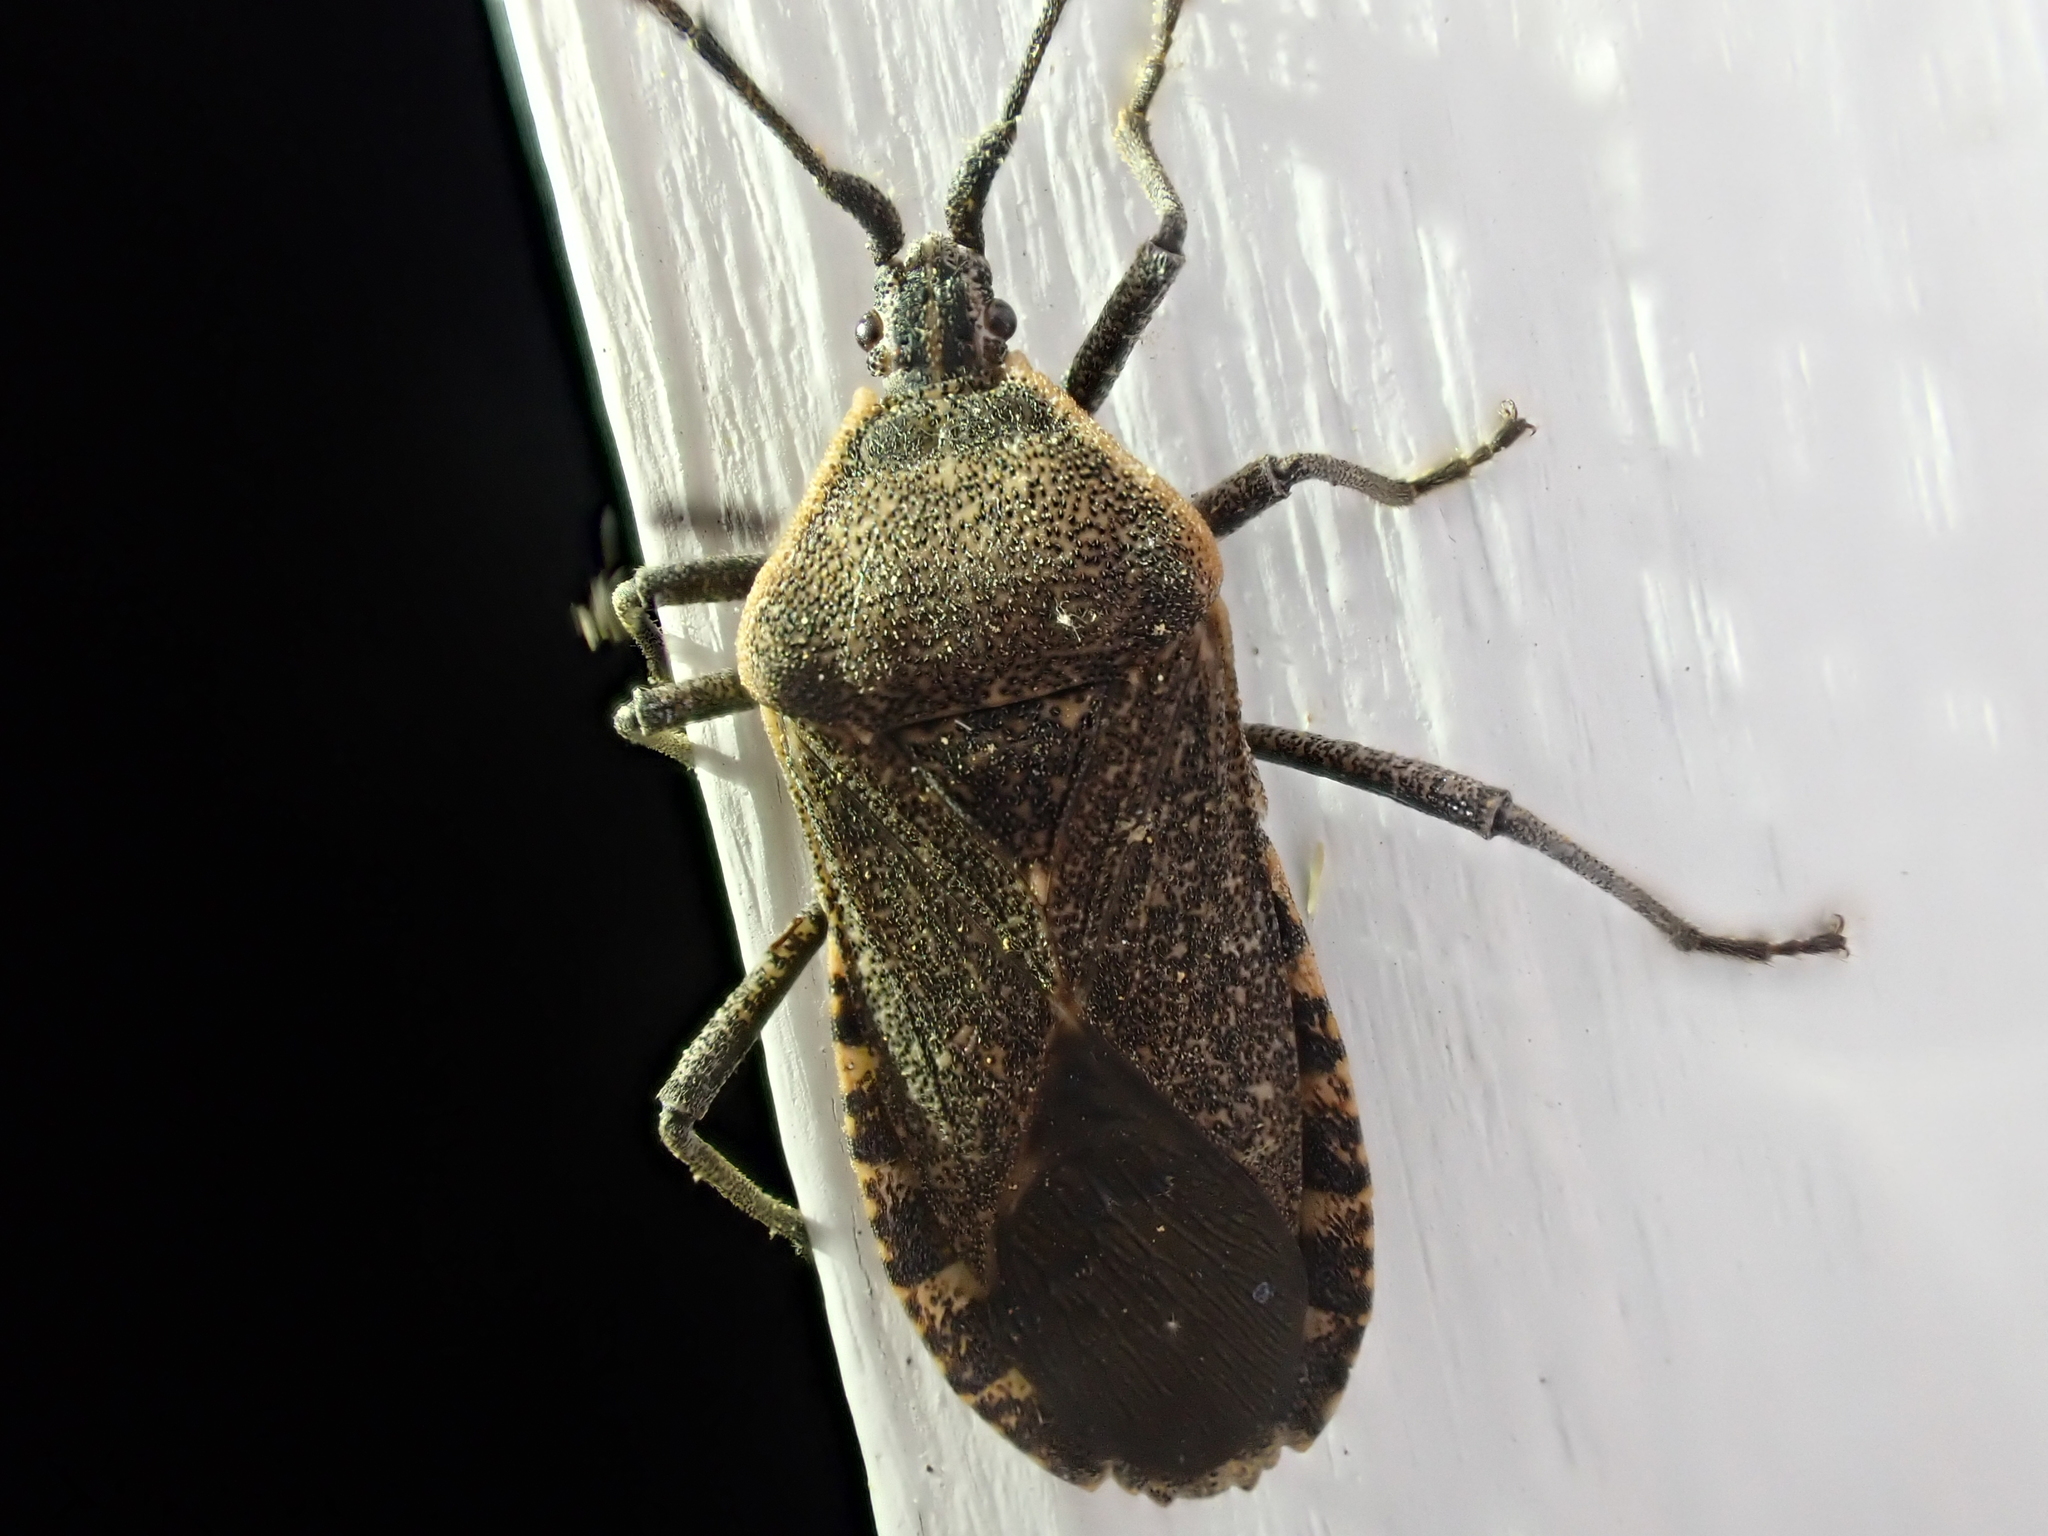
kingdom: Animalia
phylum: Arthropoda
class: Insecta
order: Hemiptera
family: Coreidae
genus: Anasa
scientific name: Anasa tristis
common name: Squash bug
